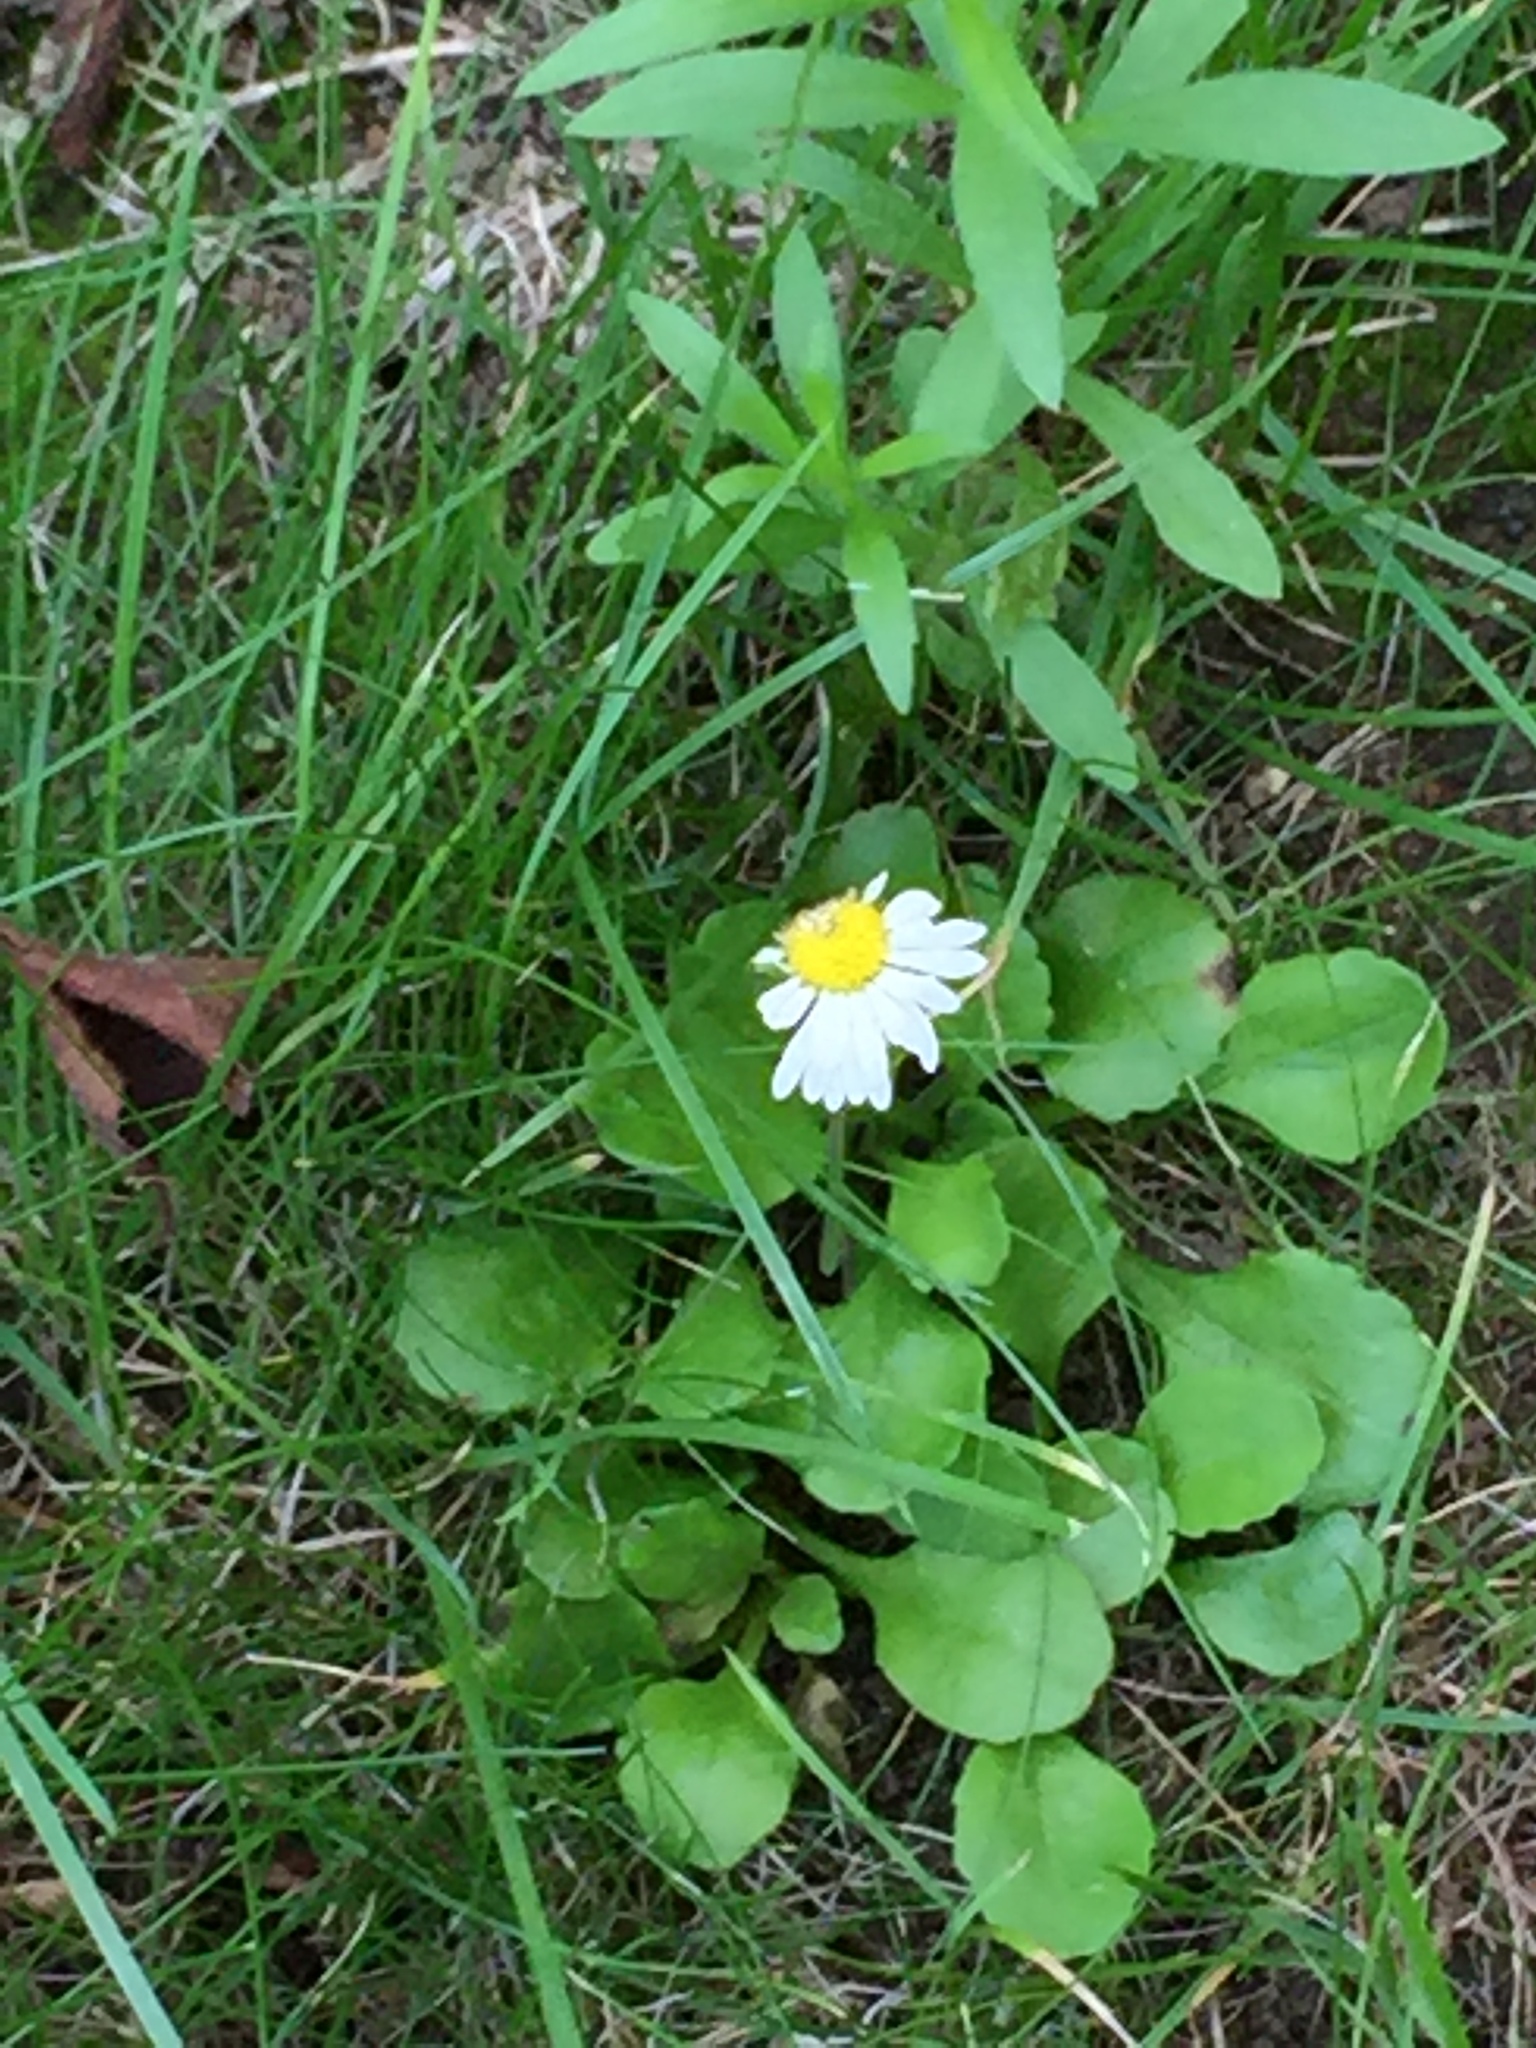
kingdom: Plantae
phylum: Tracheophyta
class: Magnoliopsida
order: Asterales
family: Asteraceae
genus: Bellis
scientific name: Bellis perennis
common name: Lawndaisy
